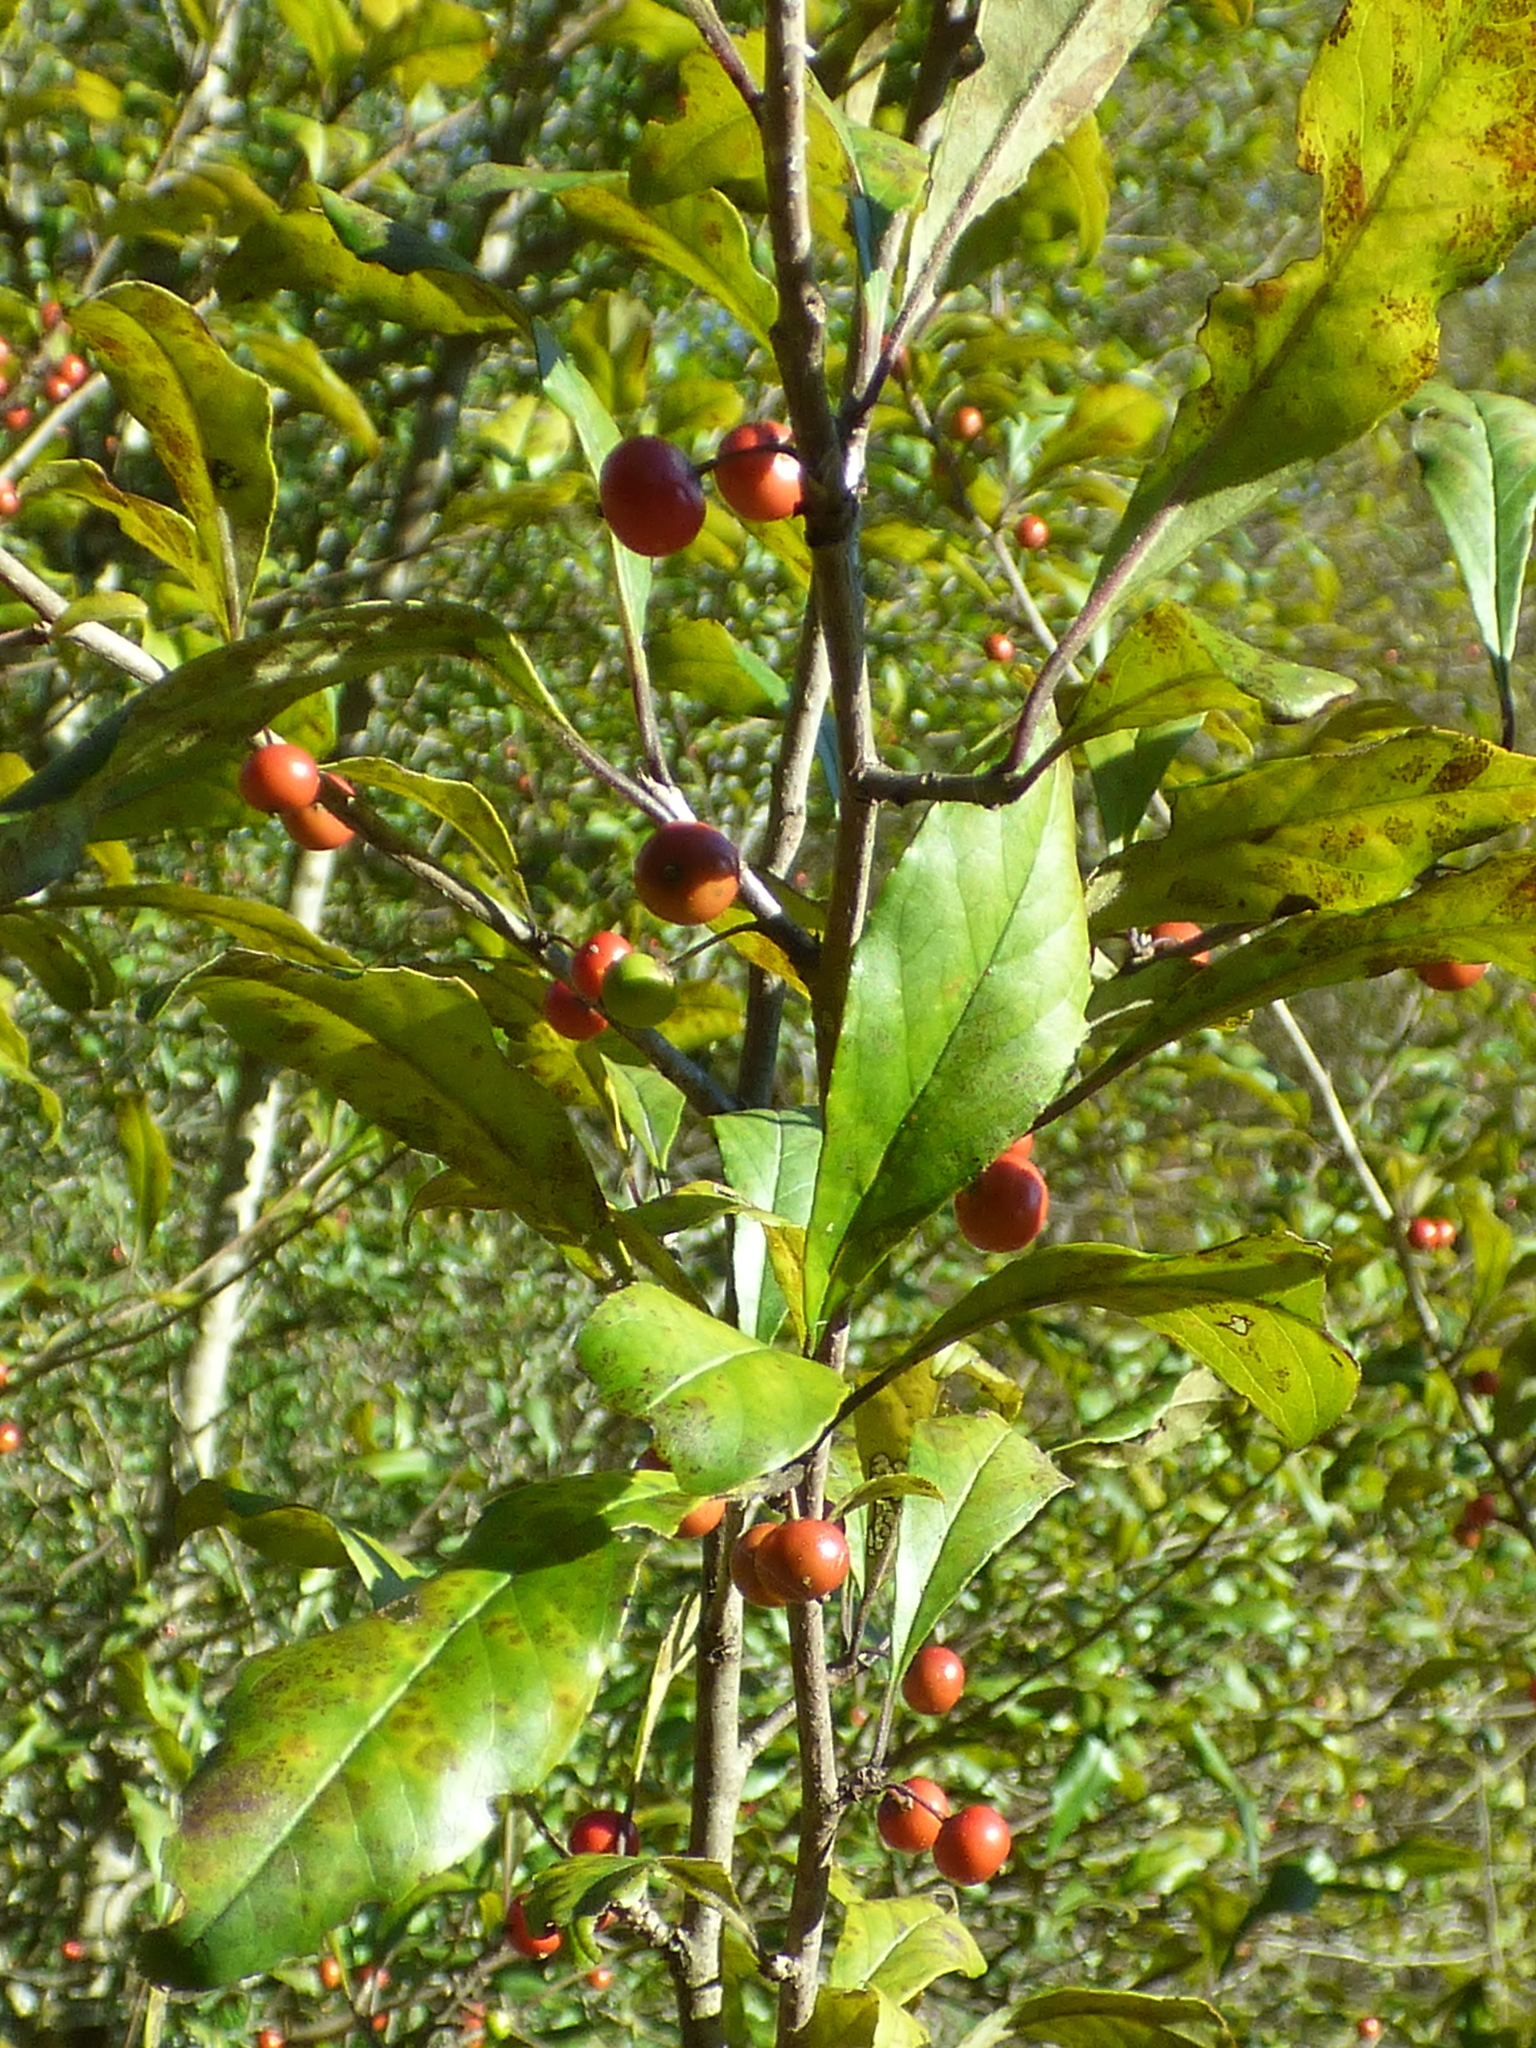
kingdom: Plantae
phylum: Tracheophyta
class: Magnoliopsida
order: Aquifoliales
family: Aquifoliaceae
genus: Ilex
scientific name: Ilex decidua
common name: Possum-haw
